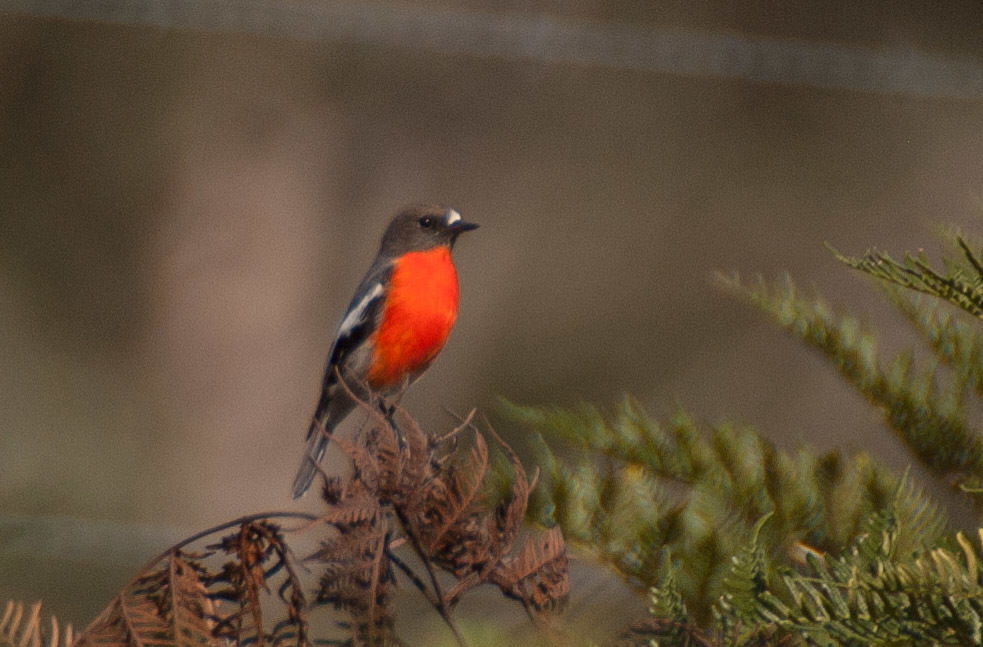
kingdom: Animalia
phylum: Chordata
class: Aves
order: Passeriformes
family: Petroicidae
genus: Petroica
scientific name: Petroica phoenicea
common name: Flame robin
